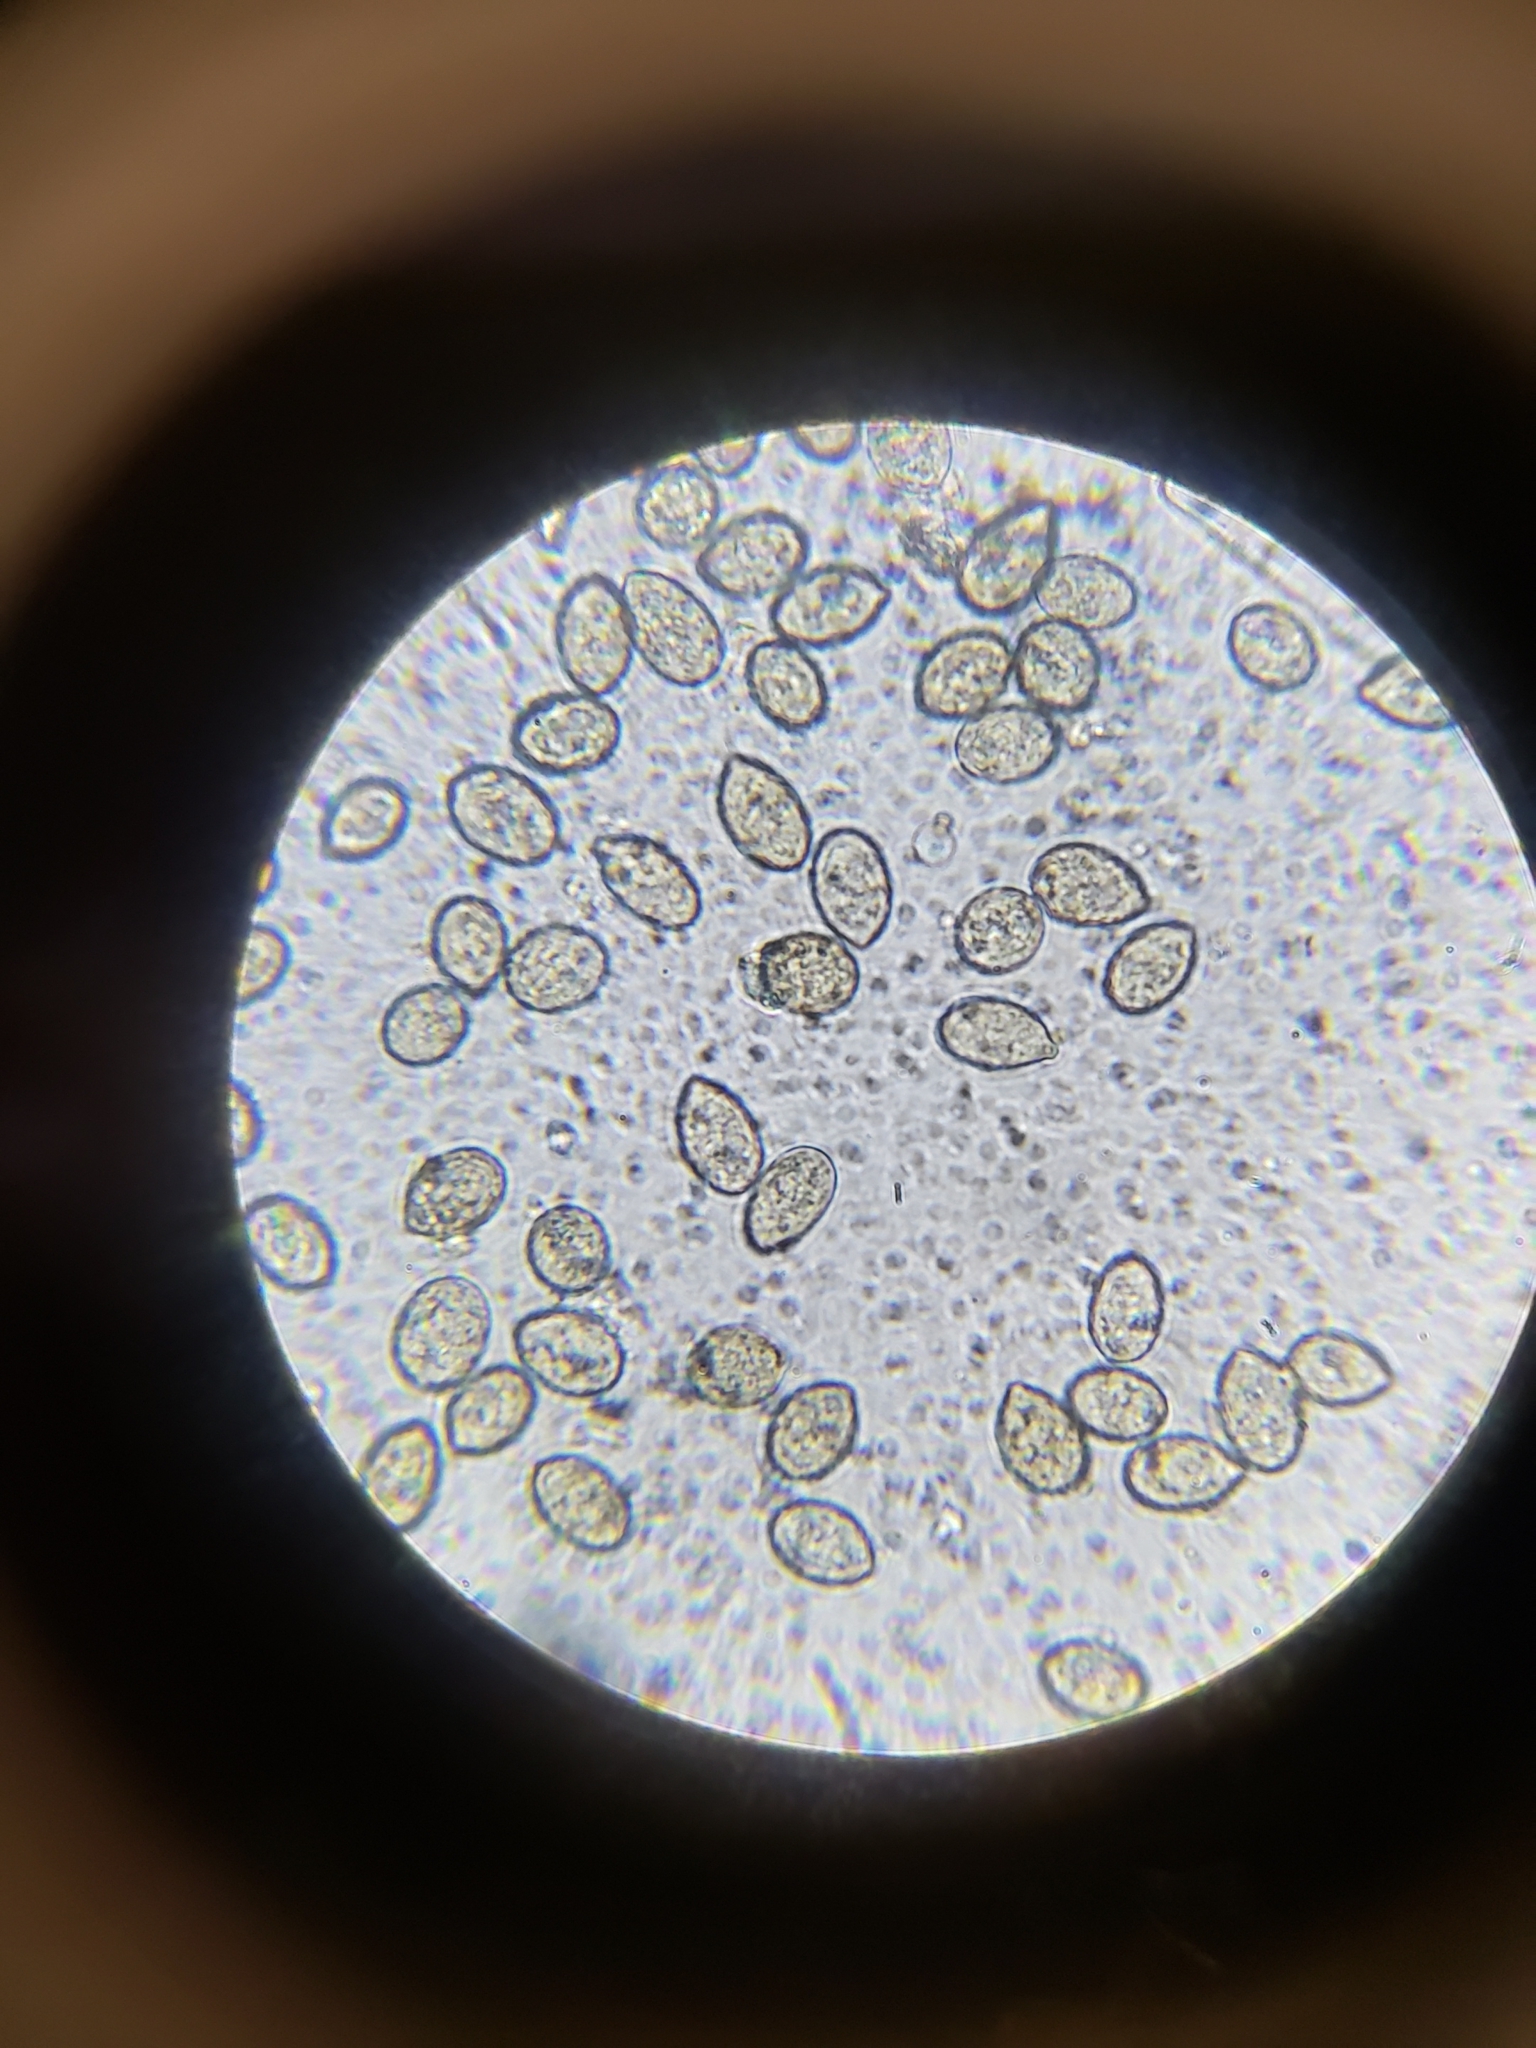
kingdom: Fungi
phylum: Basidiomycota
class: Agaricomycetes
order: Cantharellales
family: Botryobasidiaceae
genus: Botryobasidium
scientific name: Botryobasidium conspersum
